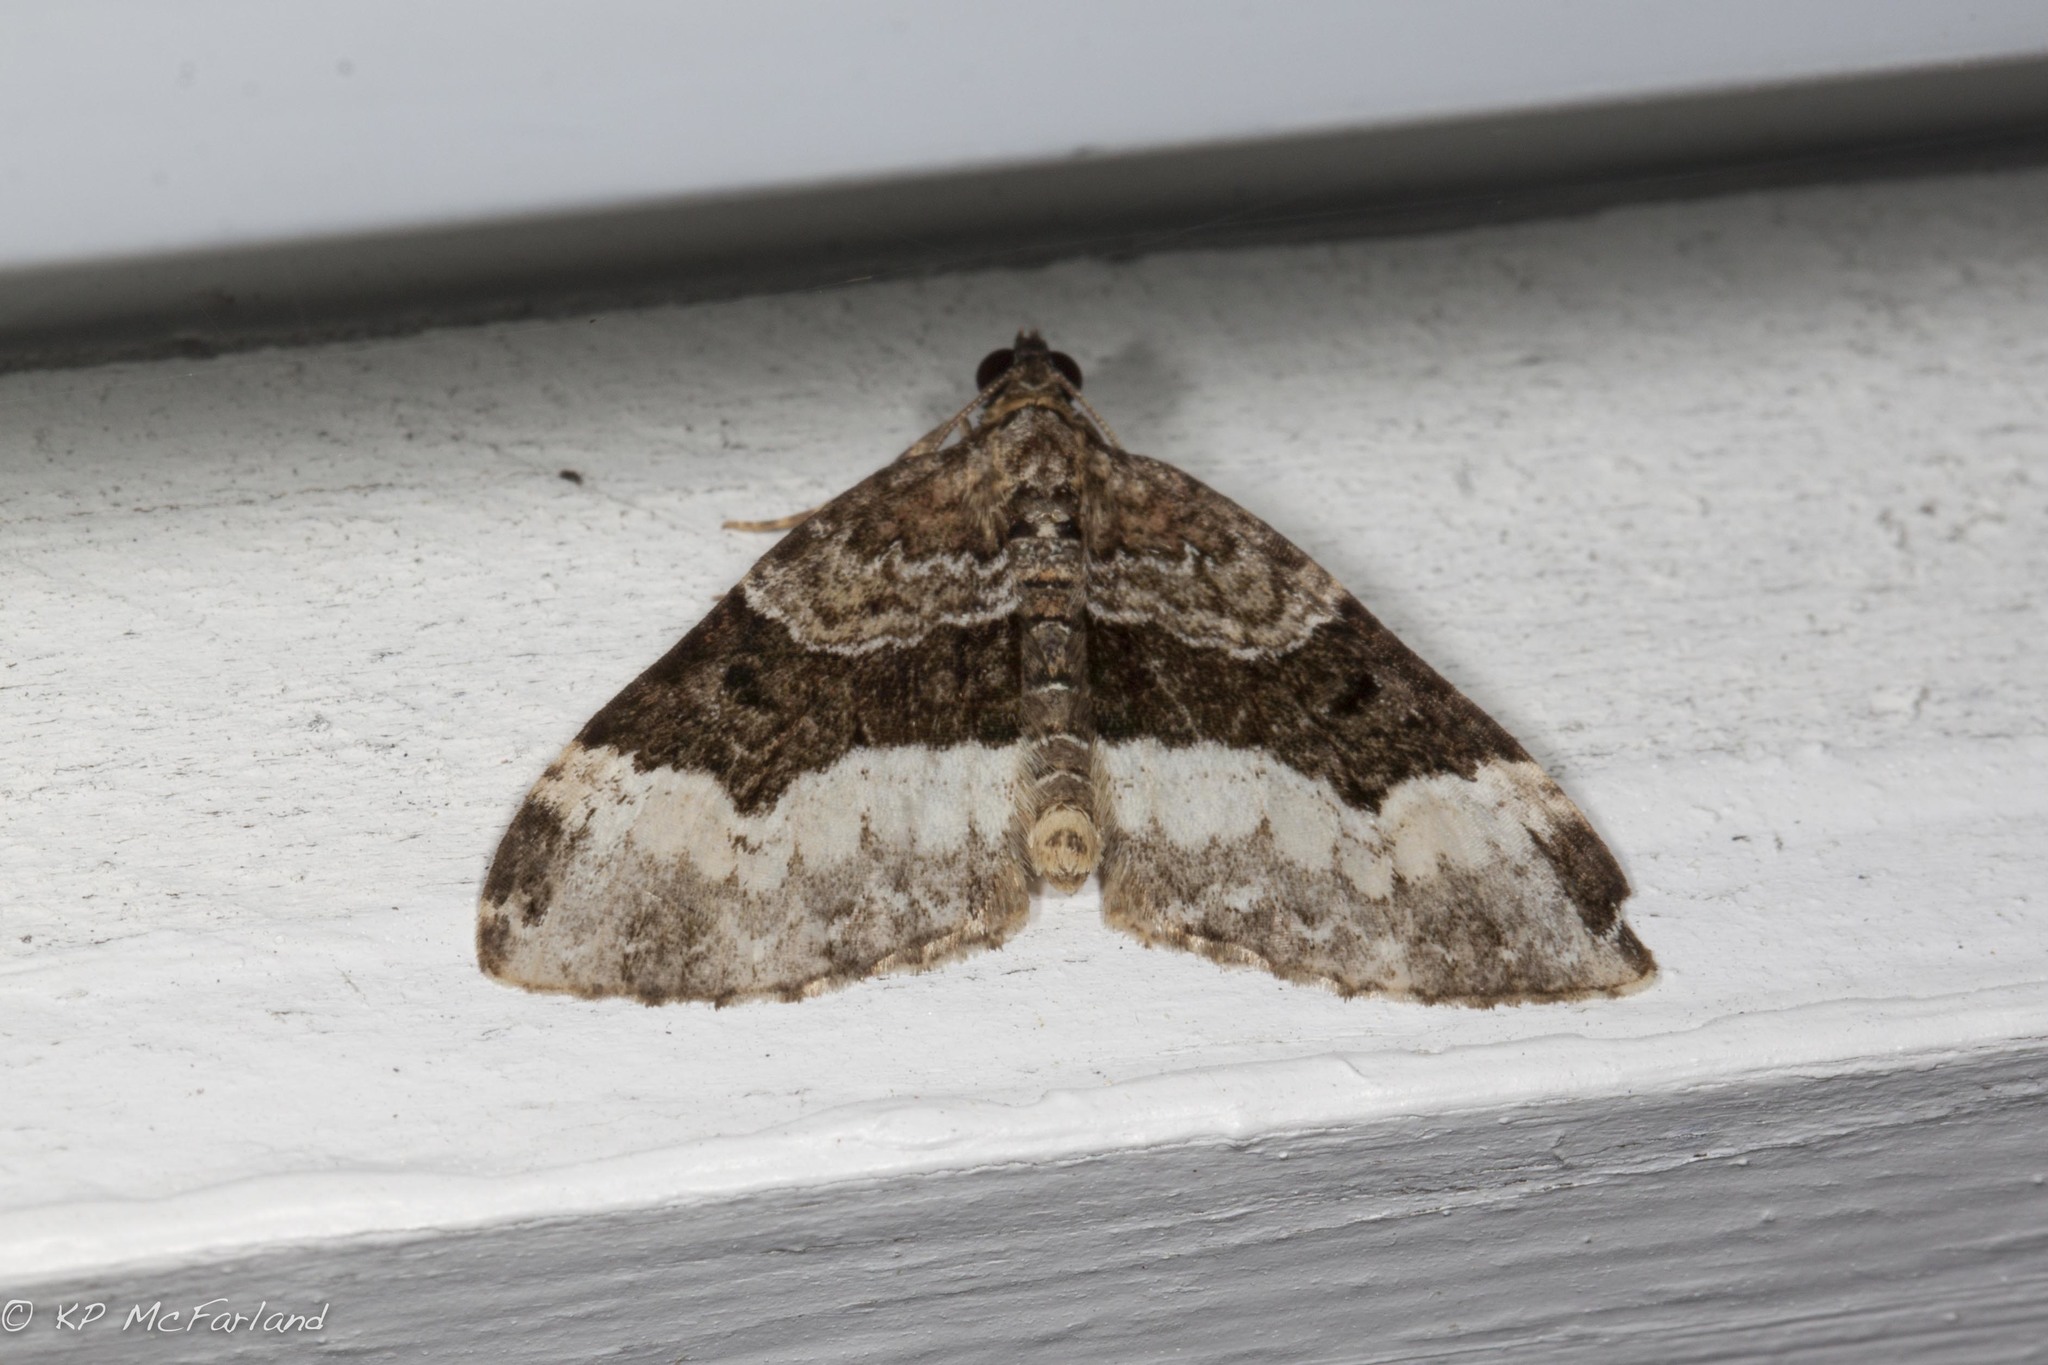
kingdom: Animalia
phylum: Arthropoda
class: Insecta
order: Lepidoptera
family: Geometridae
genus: Euphyia
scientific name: Euphyia intermediata
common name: Sharp-angled carpet
